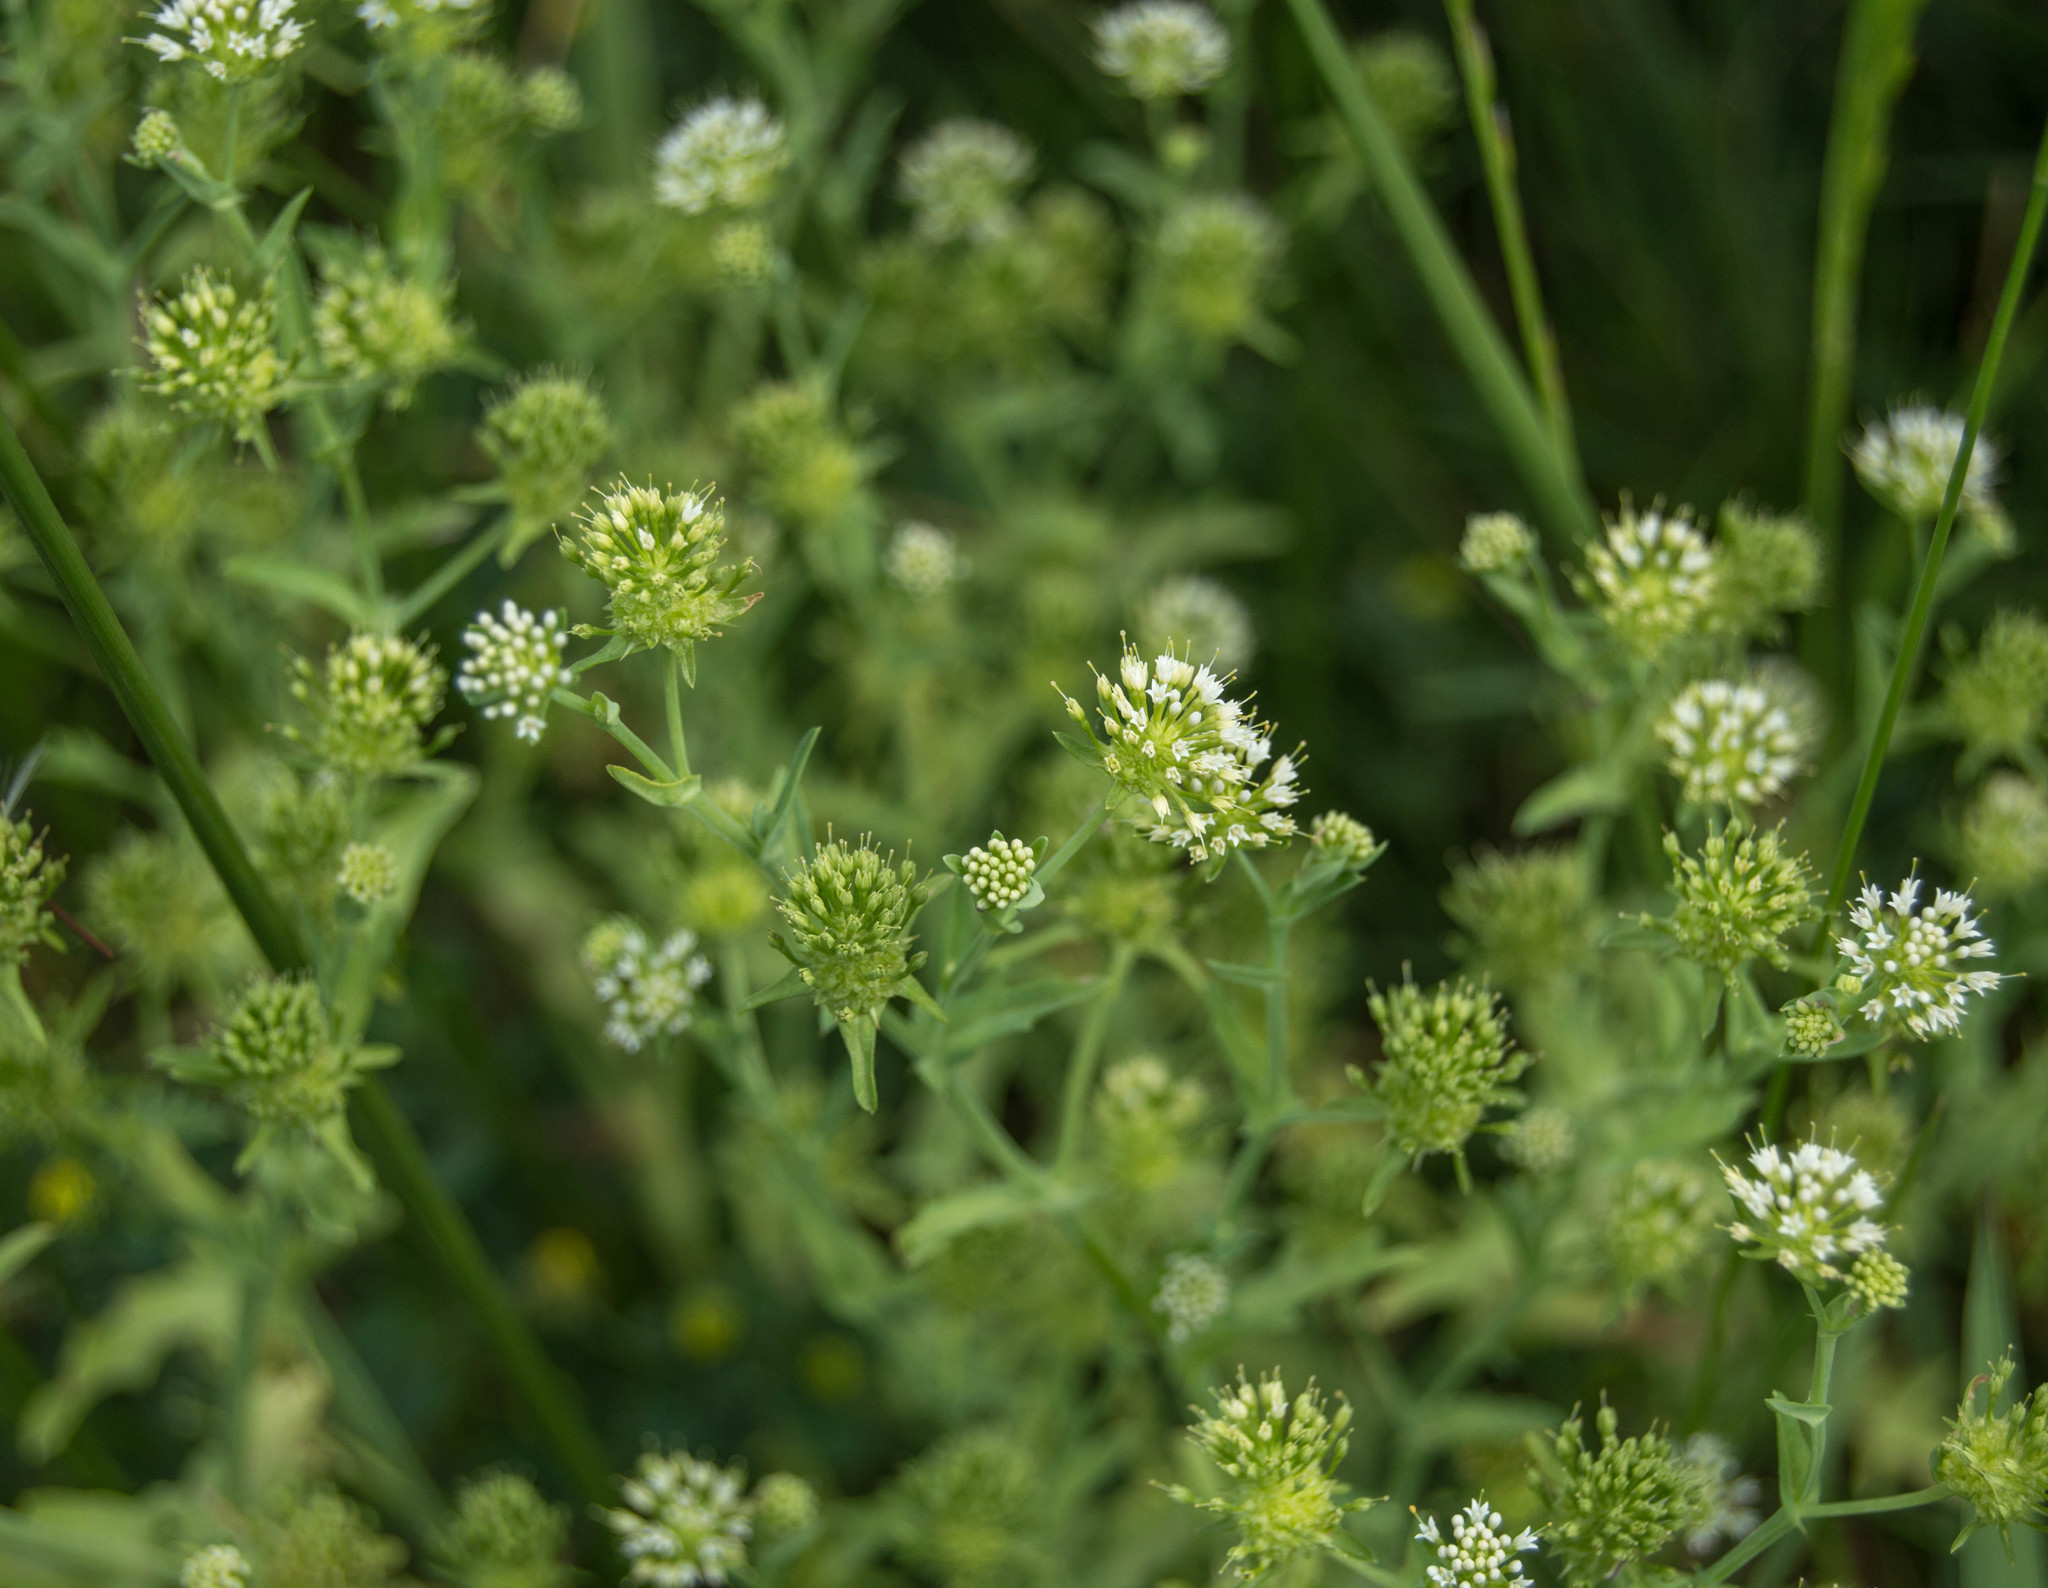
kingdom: Plantae
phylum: Tracheophyta
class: Magnoliopsida
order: Asterales
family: Calyceraceae
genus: Acicarpha
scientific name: Acicarpha tribuloides
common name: Madam gorgon
